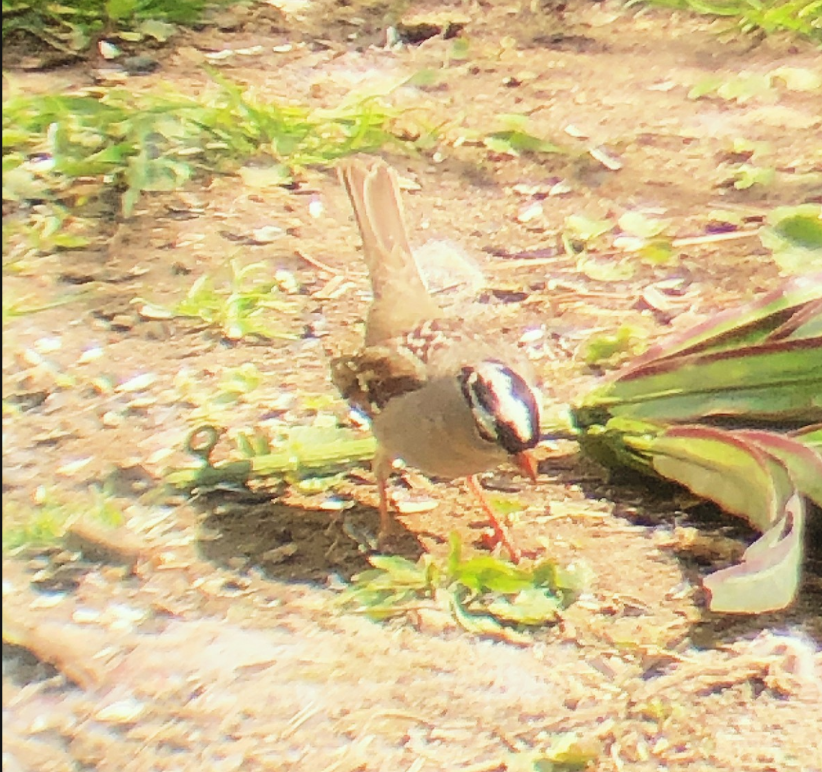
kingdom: Animalia
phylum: Chordata
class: Aves
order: Passeriformes
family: Passerellidae
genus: Zonotrichia
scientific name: Zonotrichia leucophrys
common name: White-crowned sparrow
